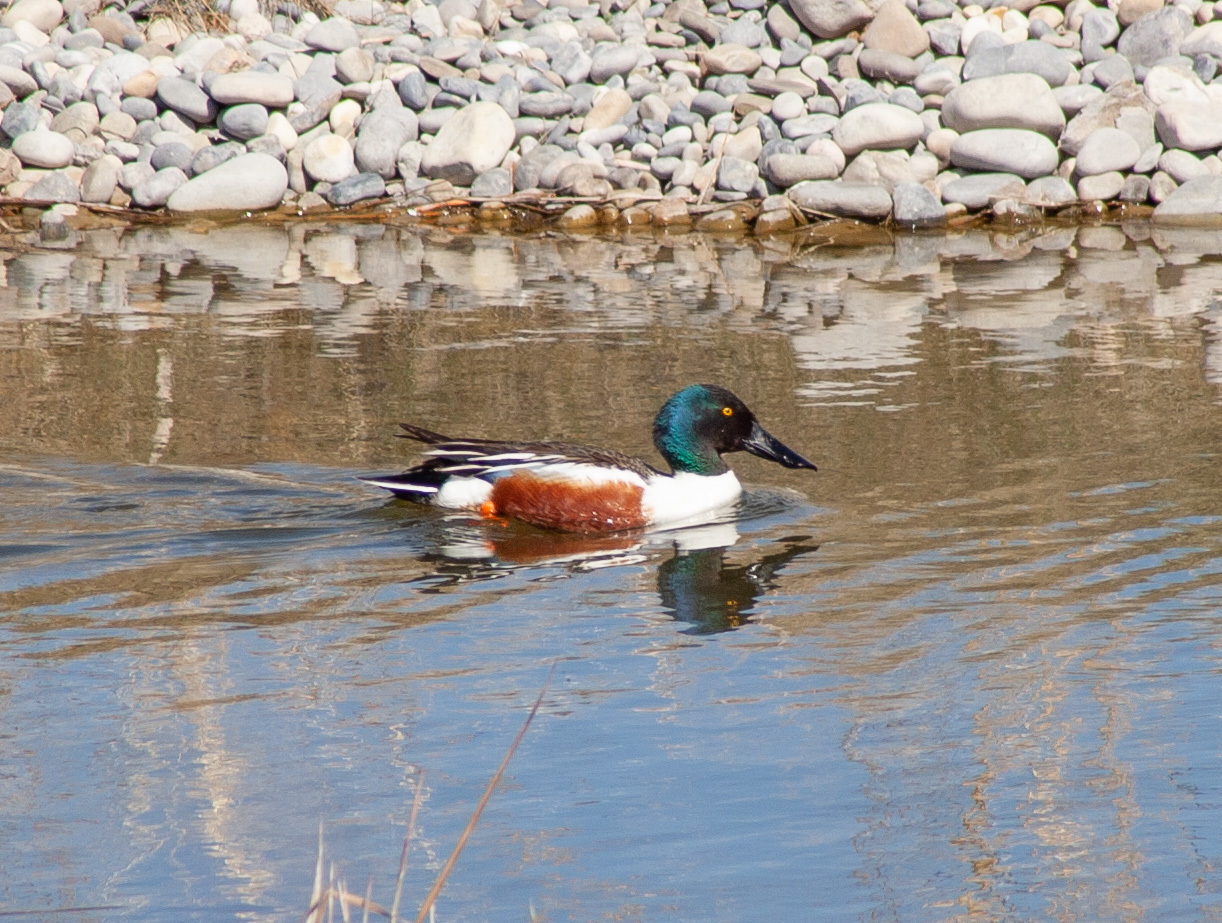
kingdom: Animalia
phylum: Chordata
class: Aves
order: Anseriformes
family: Anatidae
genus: Spatula
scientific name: Spatula clypeata
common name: Northern shoveler
